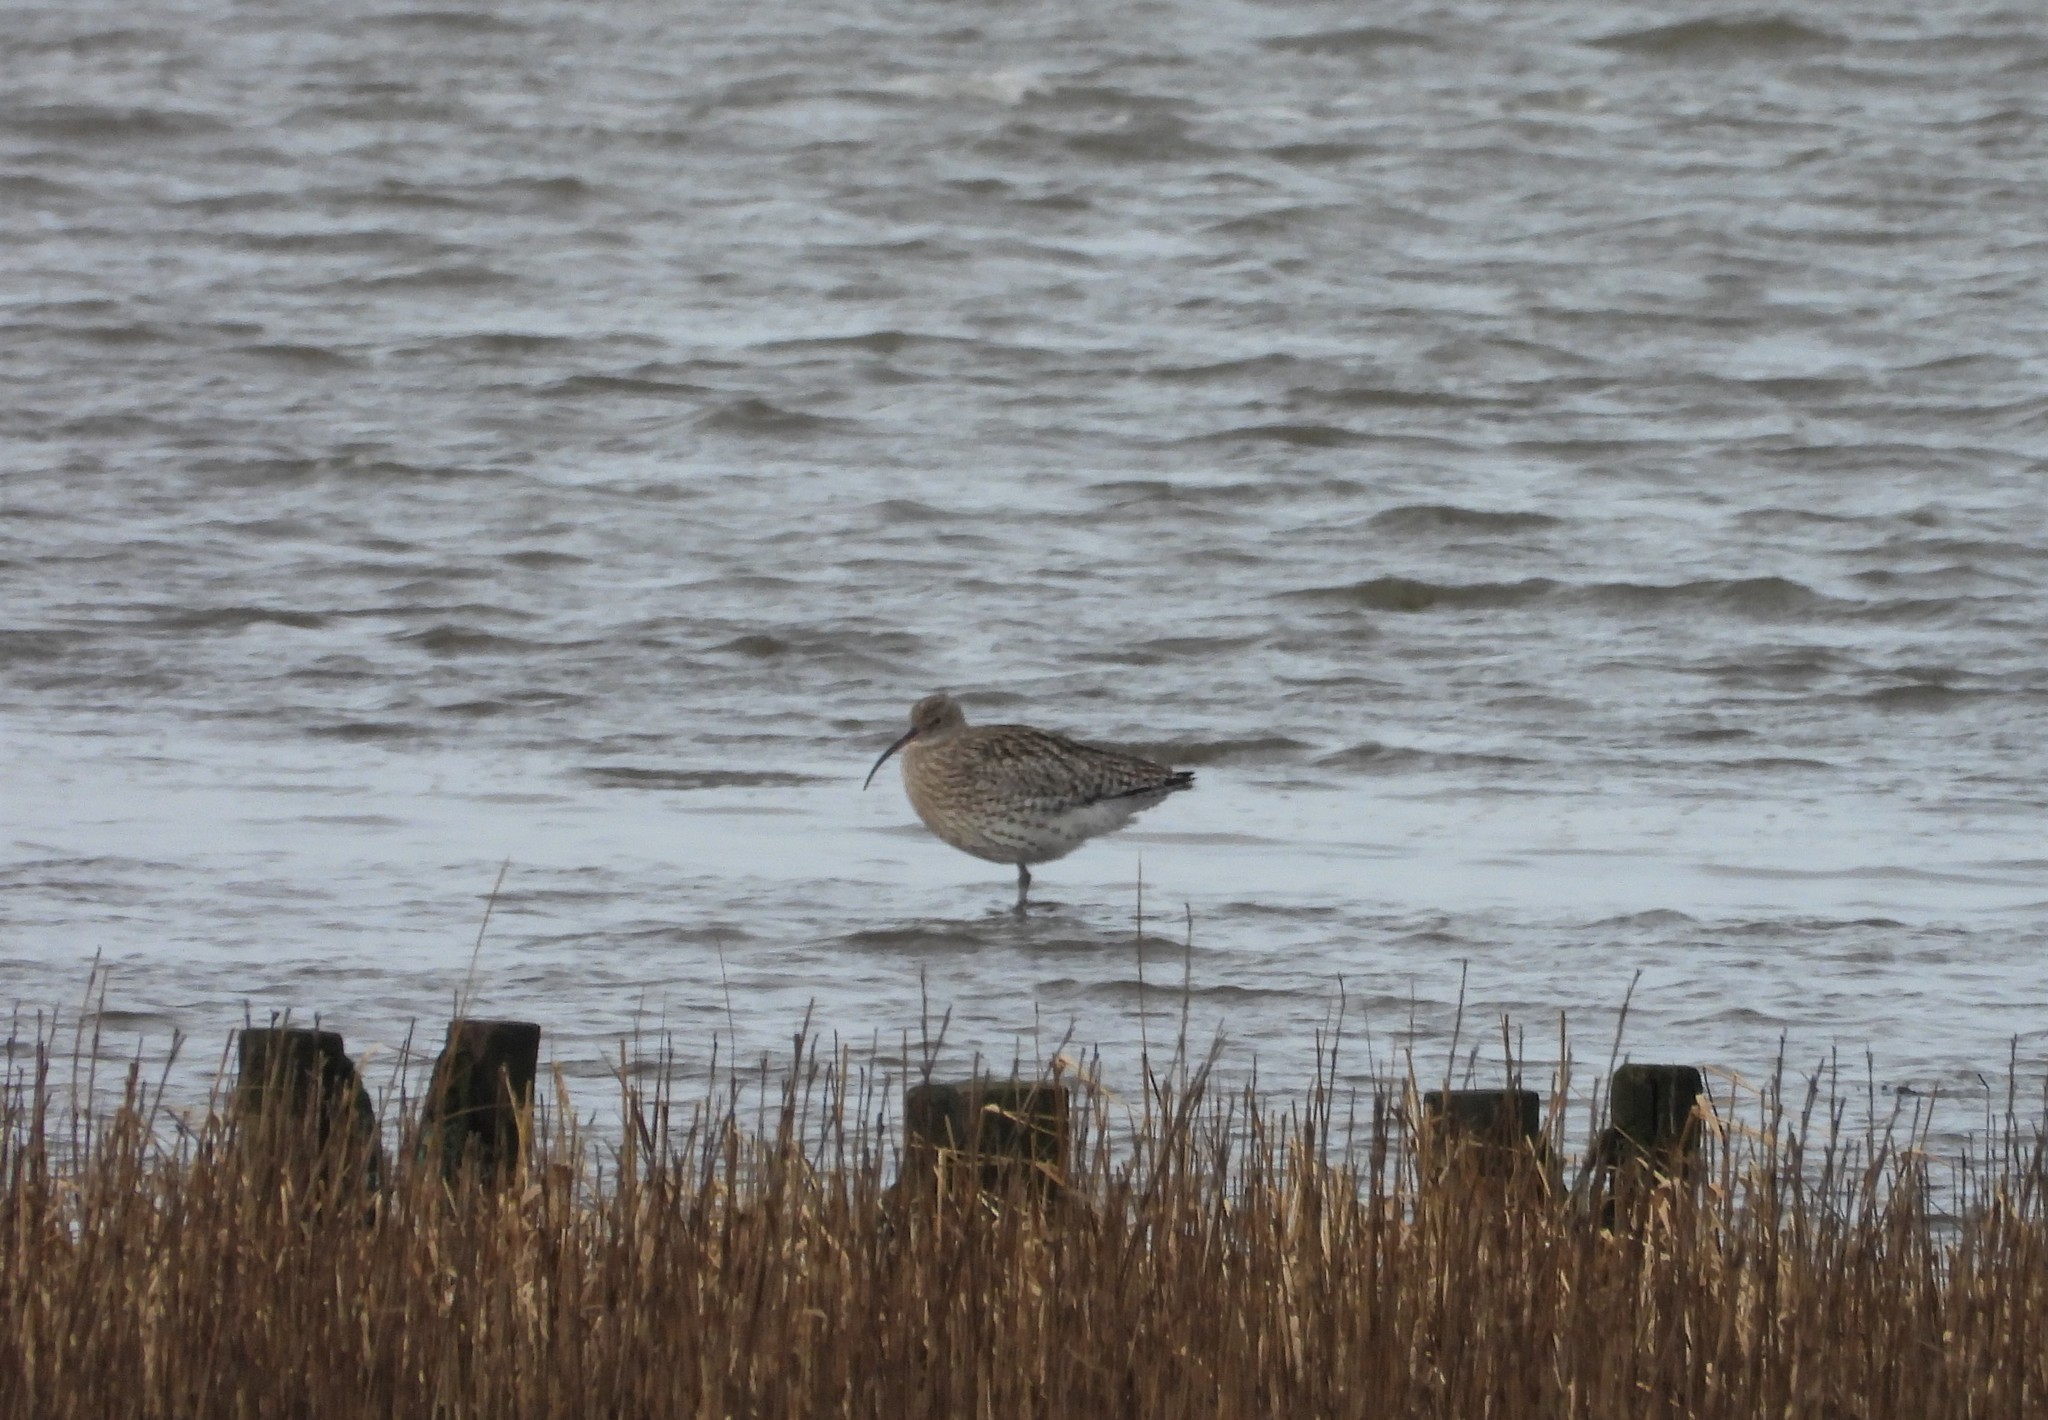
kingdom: Animalia
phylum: Chordata
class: Aves
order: Charadriiformes
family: Scolopacidae
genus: Numenius
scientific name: Numenius arquata
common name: Eurasian curlew
